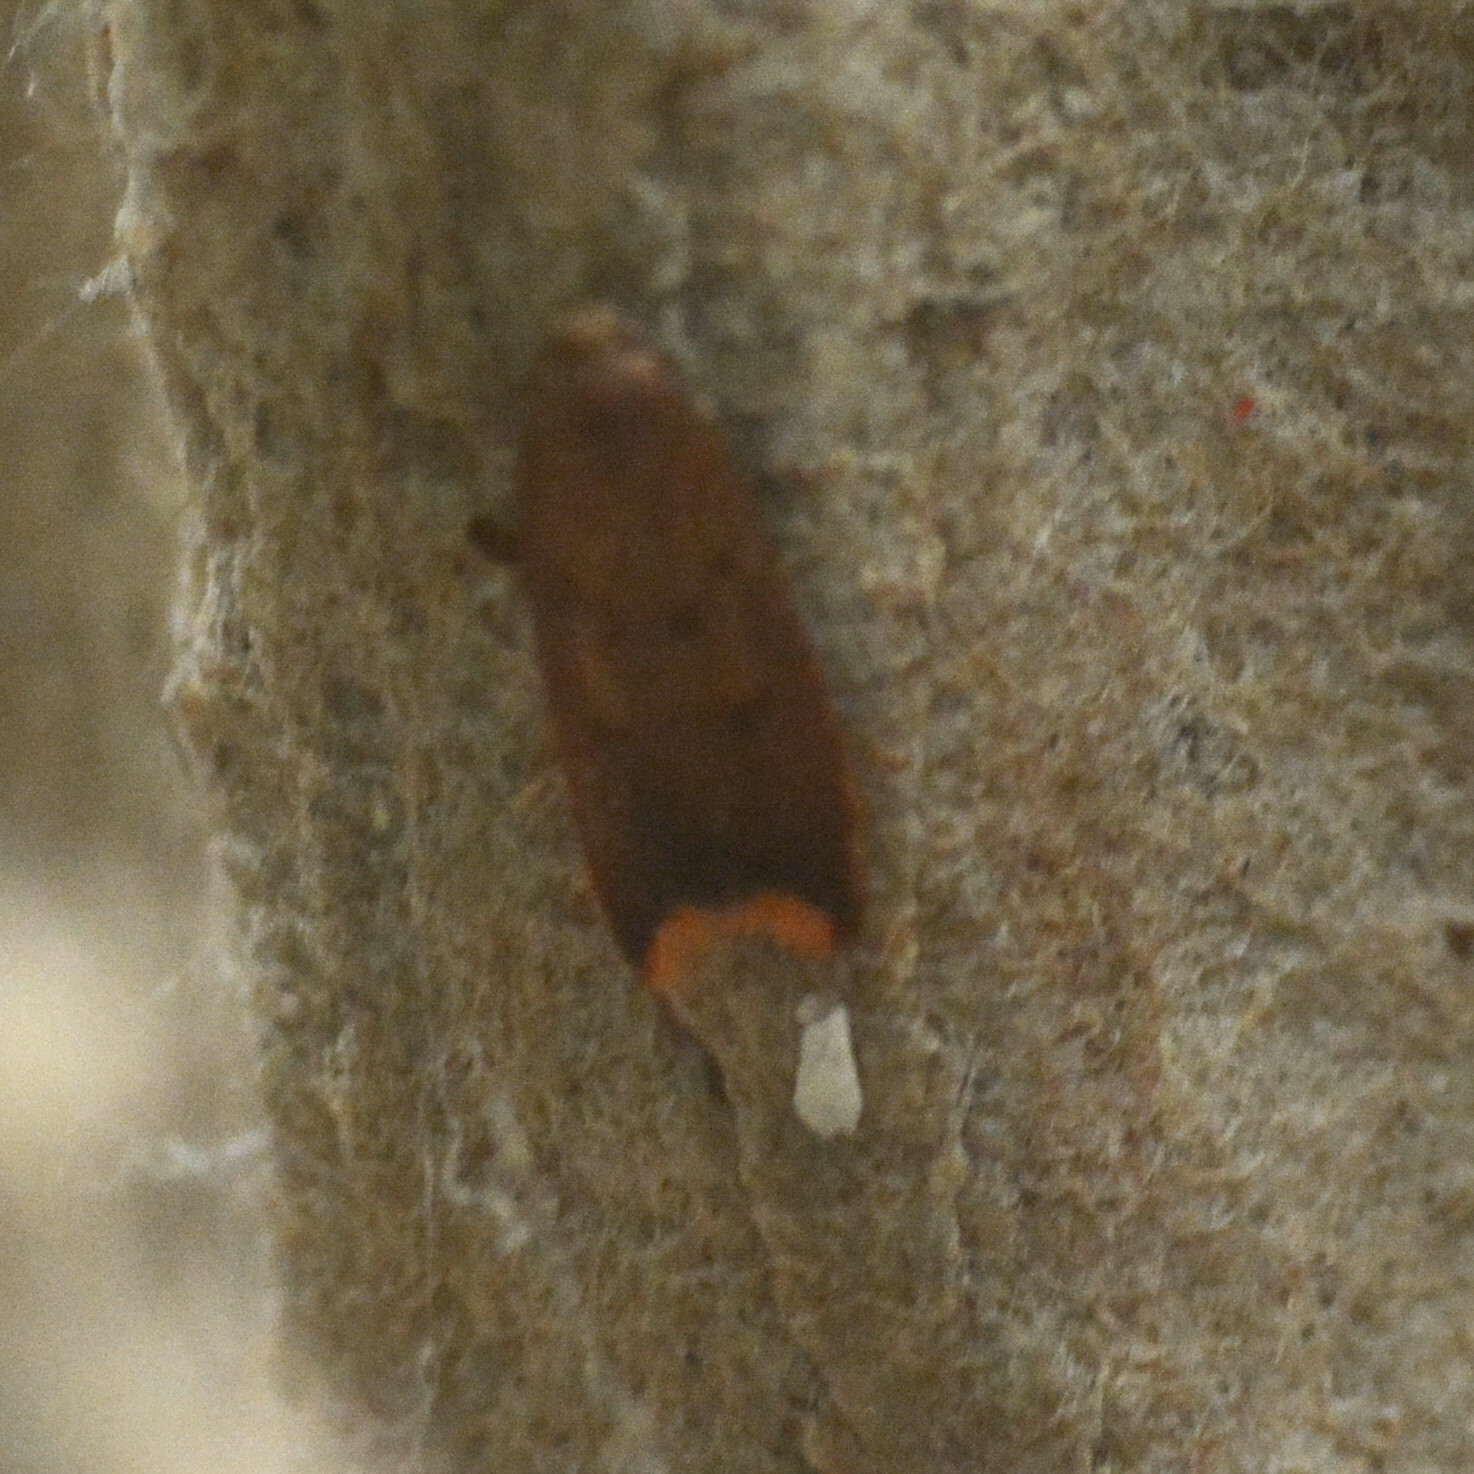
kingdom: Animalia
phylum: Arthropoda
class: Insecta
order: Lepidoptera
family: Oecophoridae
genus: Tachystola
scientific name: Tachystola acroxantha
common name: Ruddy streak
